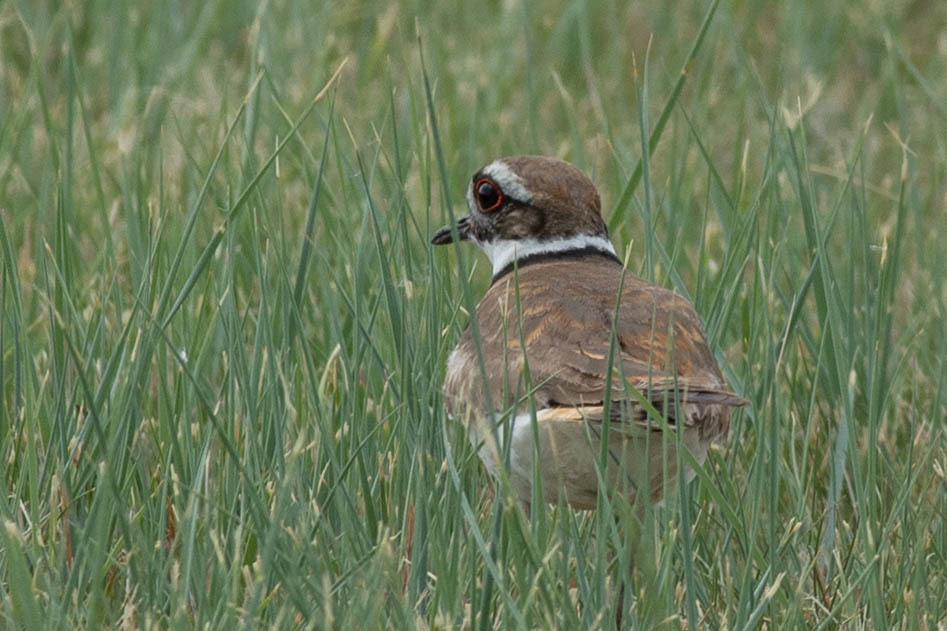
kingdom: Animalia
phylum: Chordata
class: Aves
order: Charadriiformes
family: Charadriidae
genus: Charadrius
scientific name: Charadrius vociferus
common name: Killdeer
